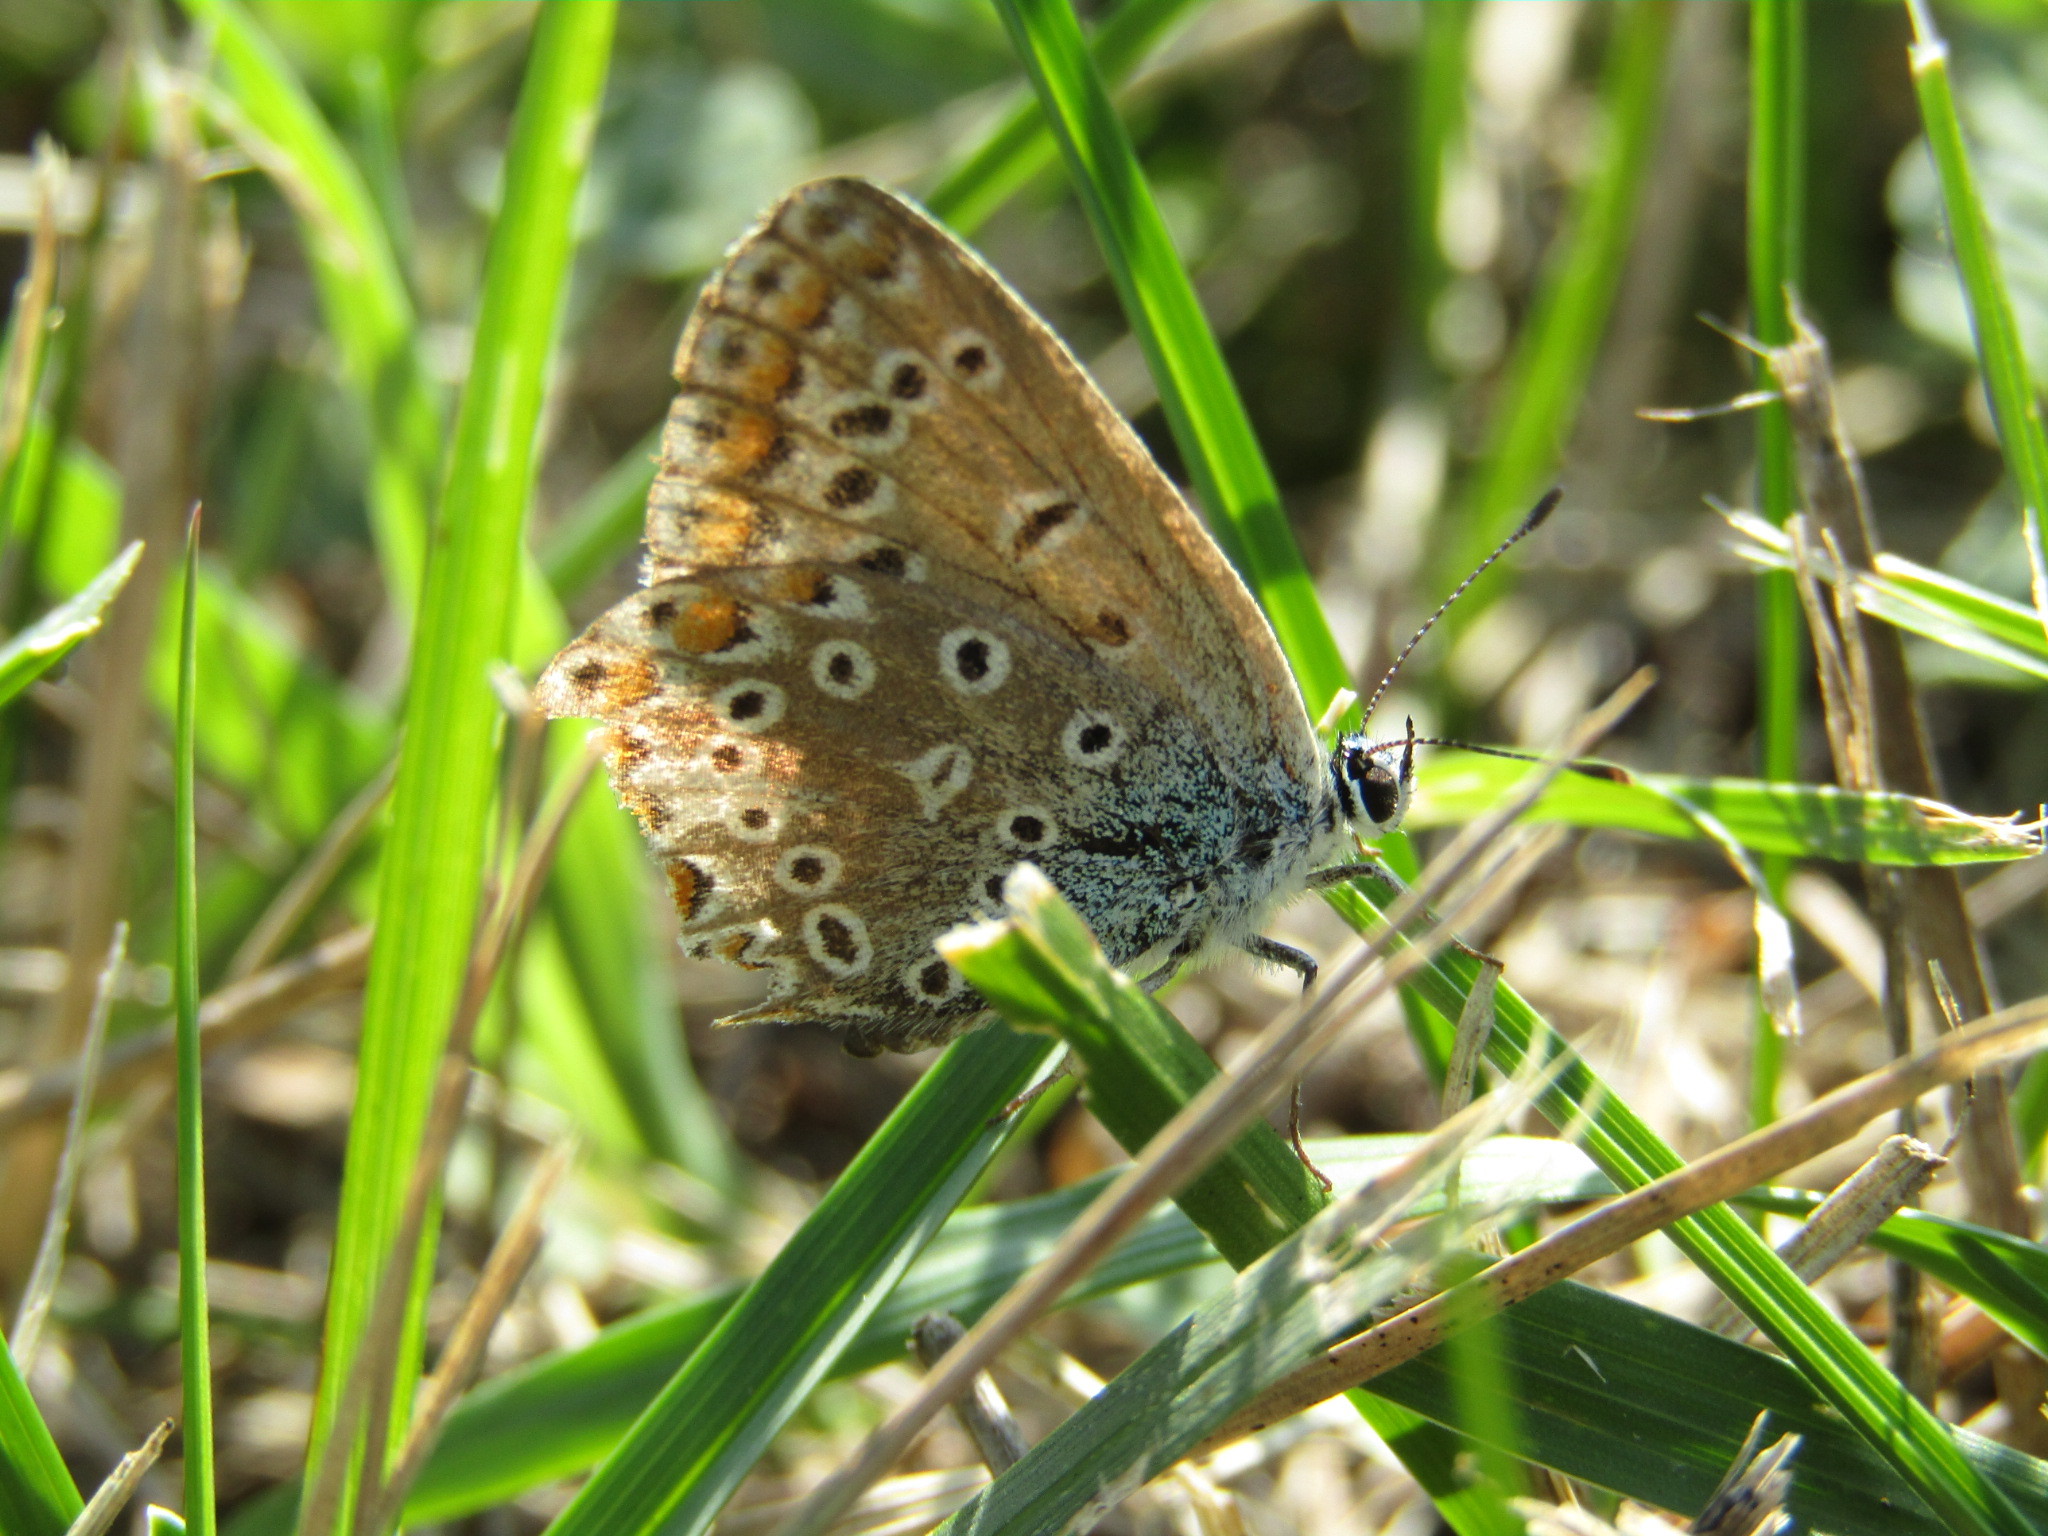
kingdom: Animalia
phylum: Arthropoda
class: Insecta
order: Lepidoptera
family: Lycaenidae
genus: Polyommatus
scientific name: Polyommatus icarus
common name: Common blue
